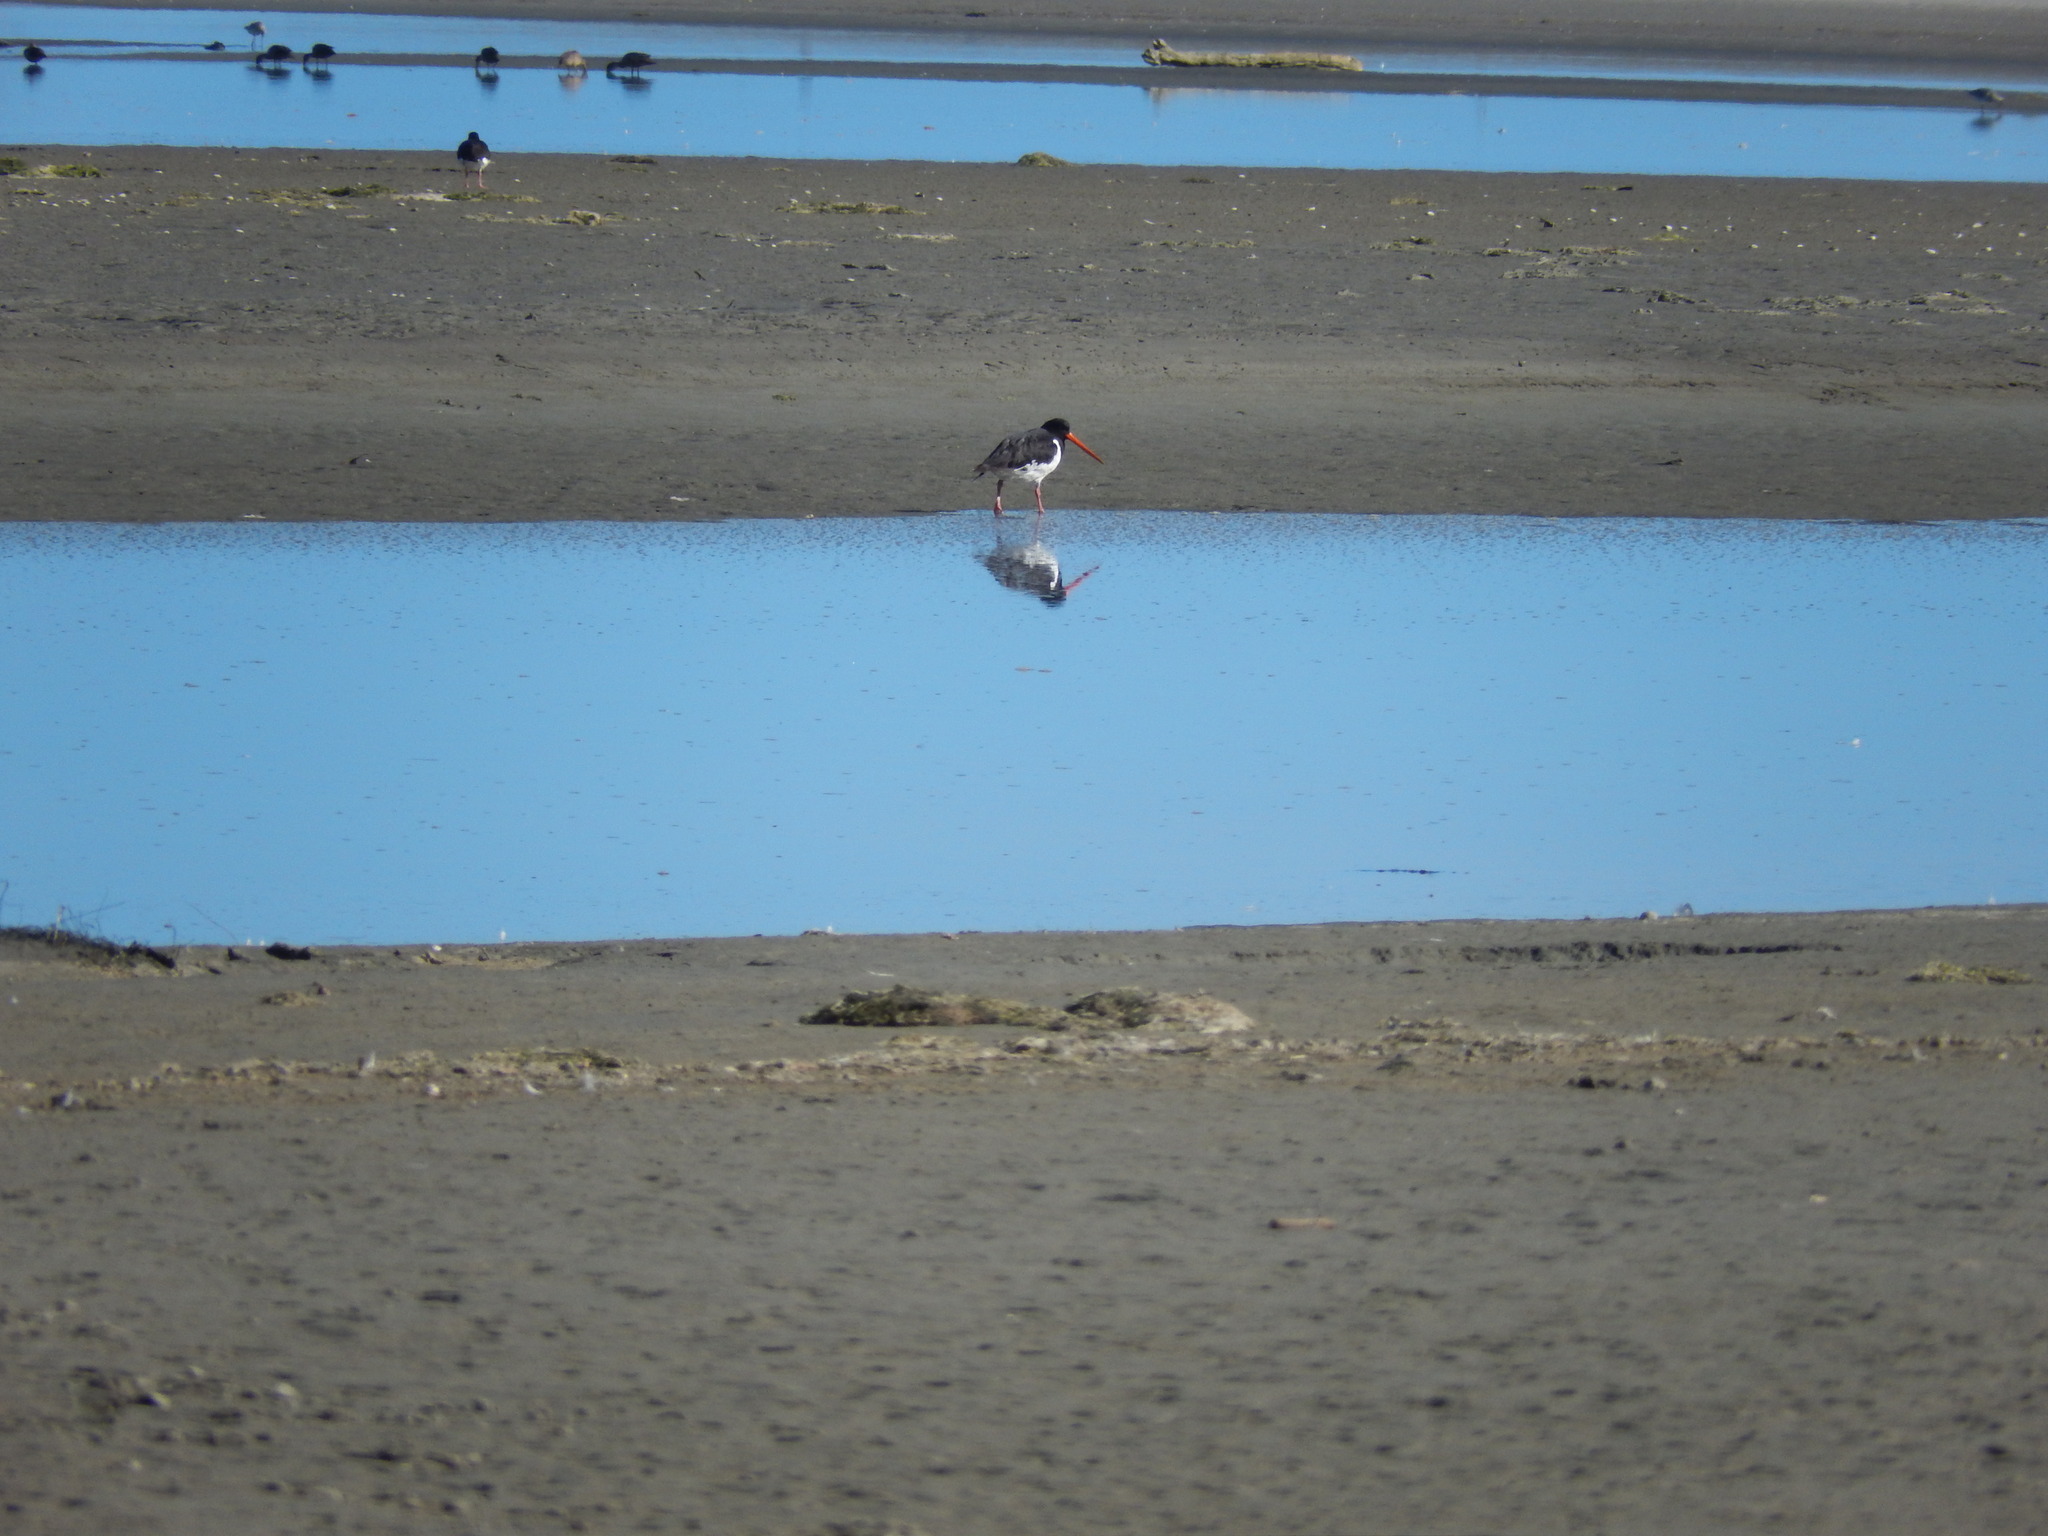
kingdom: Animalia
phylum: Chordata
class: Aves
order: Charadriiformes
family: Haematopodidae
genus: Haematopus
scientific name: Haematopus finschi
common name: South island oystercatcher
